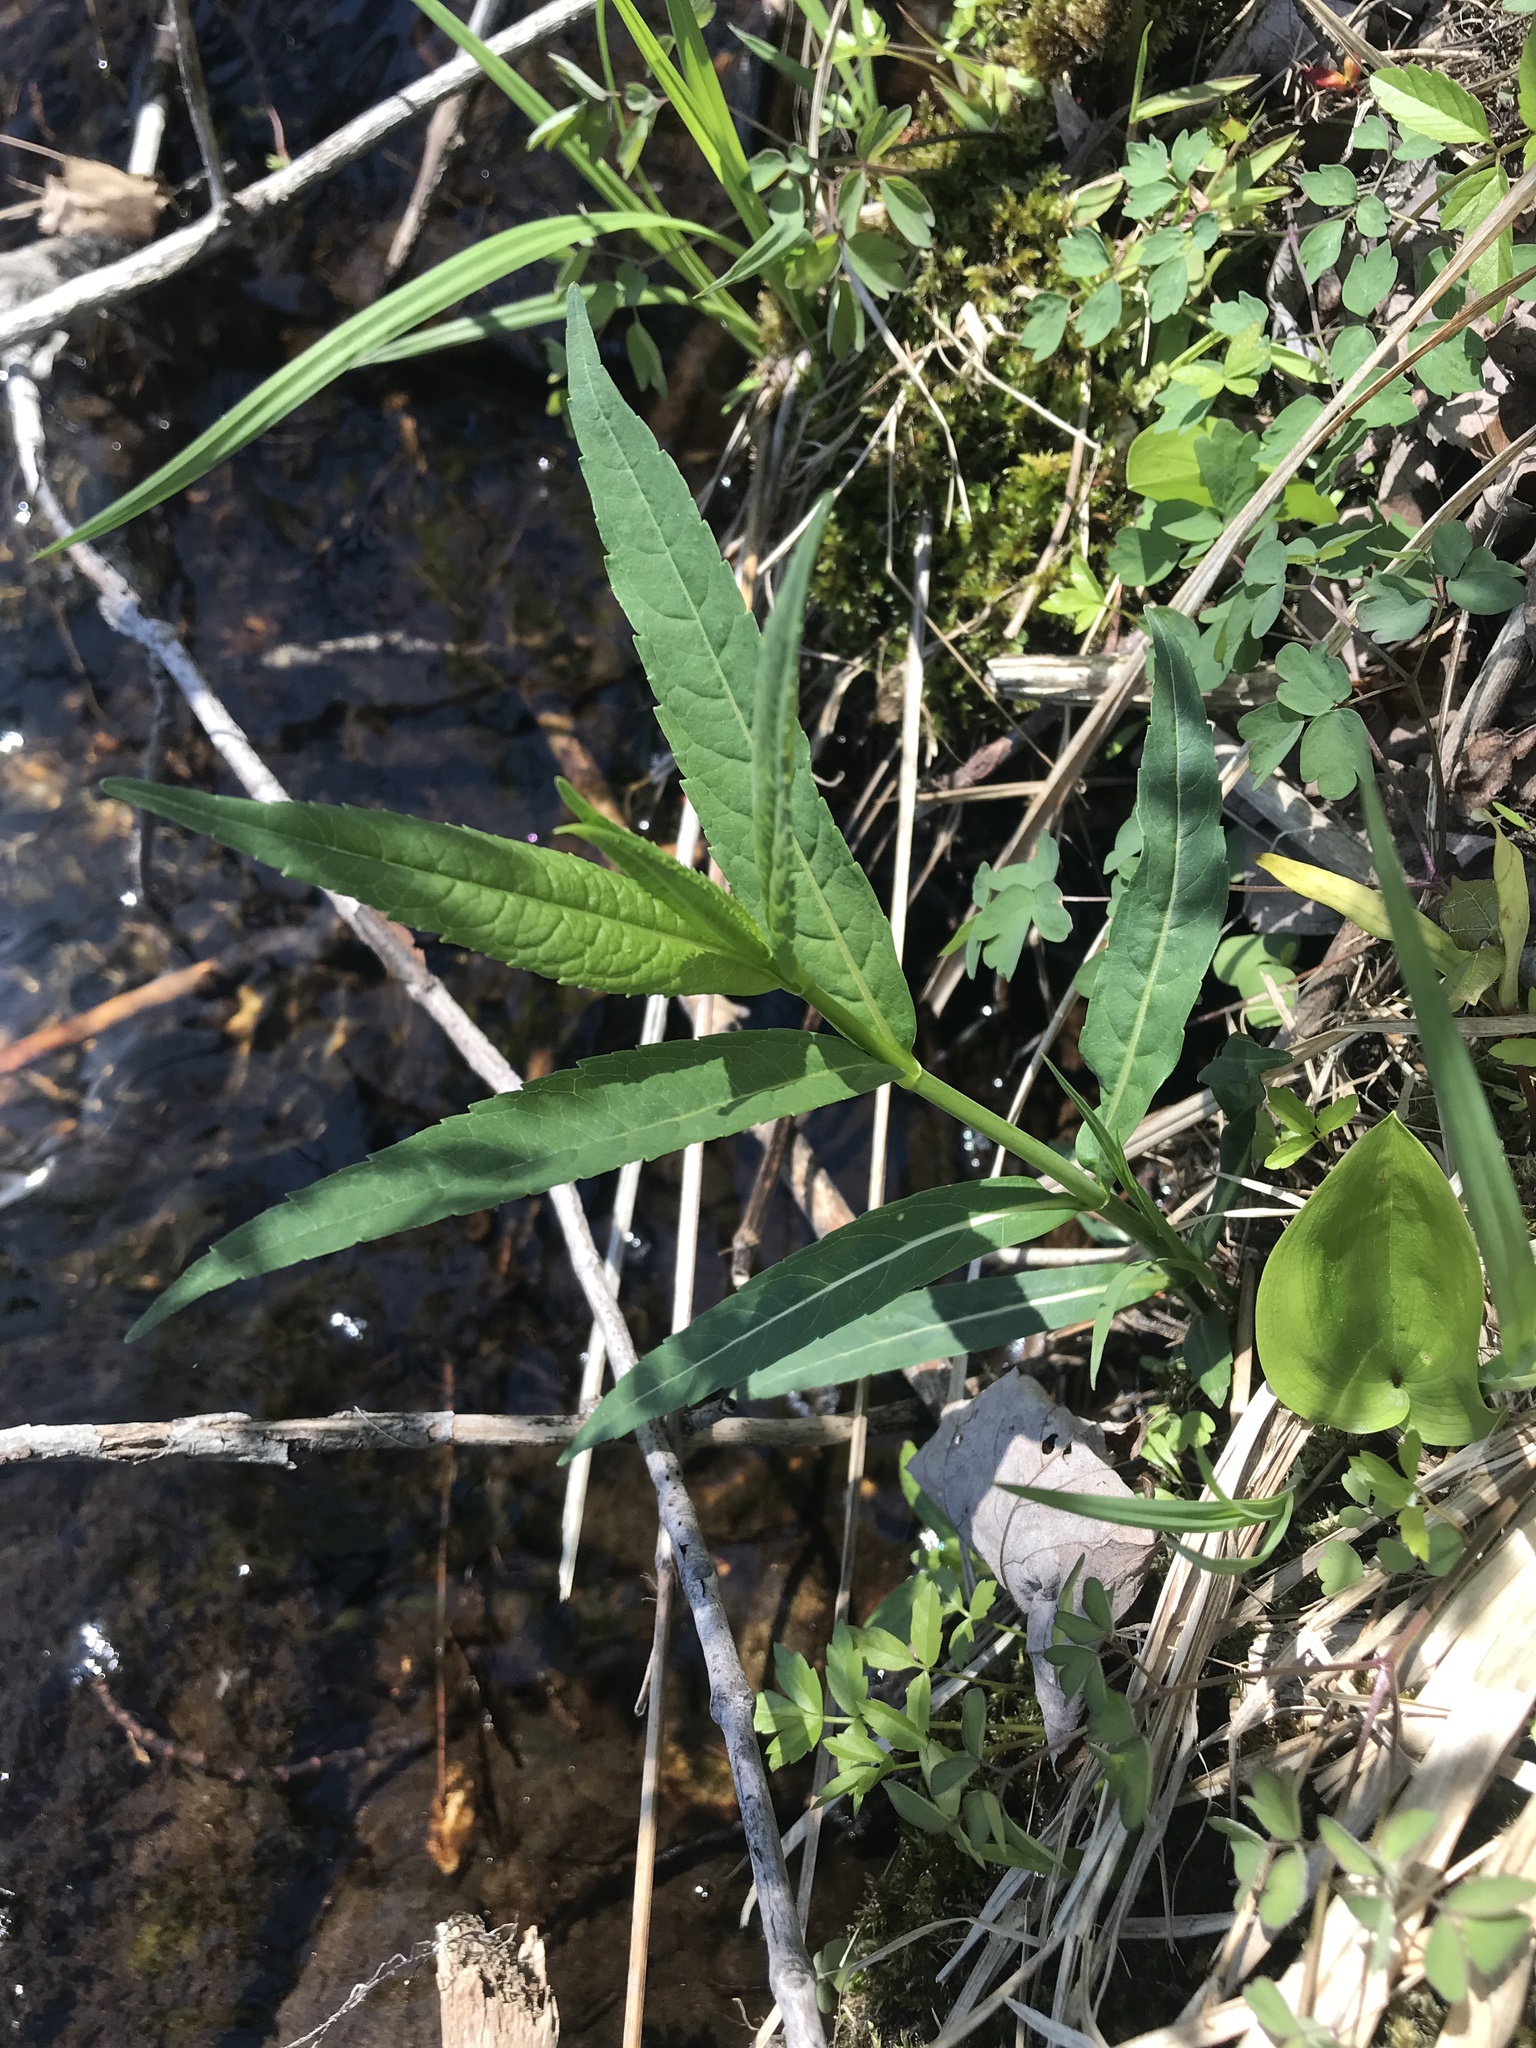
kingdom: Plantae
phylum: Tracheophyta
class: Magnoliopsida
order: Lamiales
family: Plantaginaceae
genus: Chelone
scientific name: Chelone glabra
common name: Snakehead
